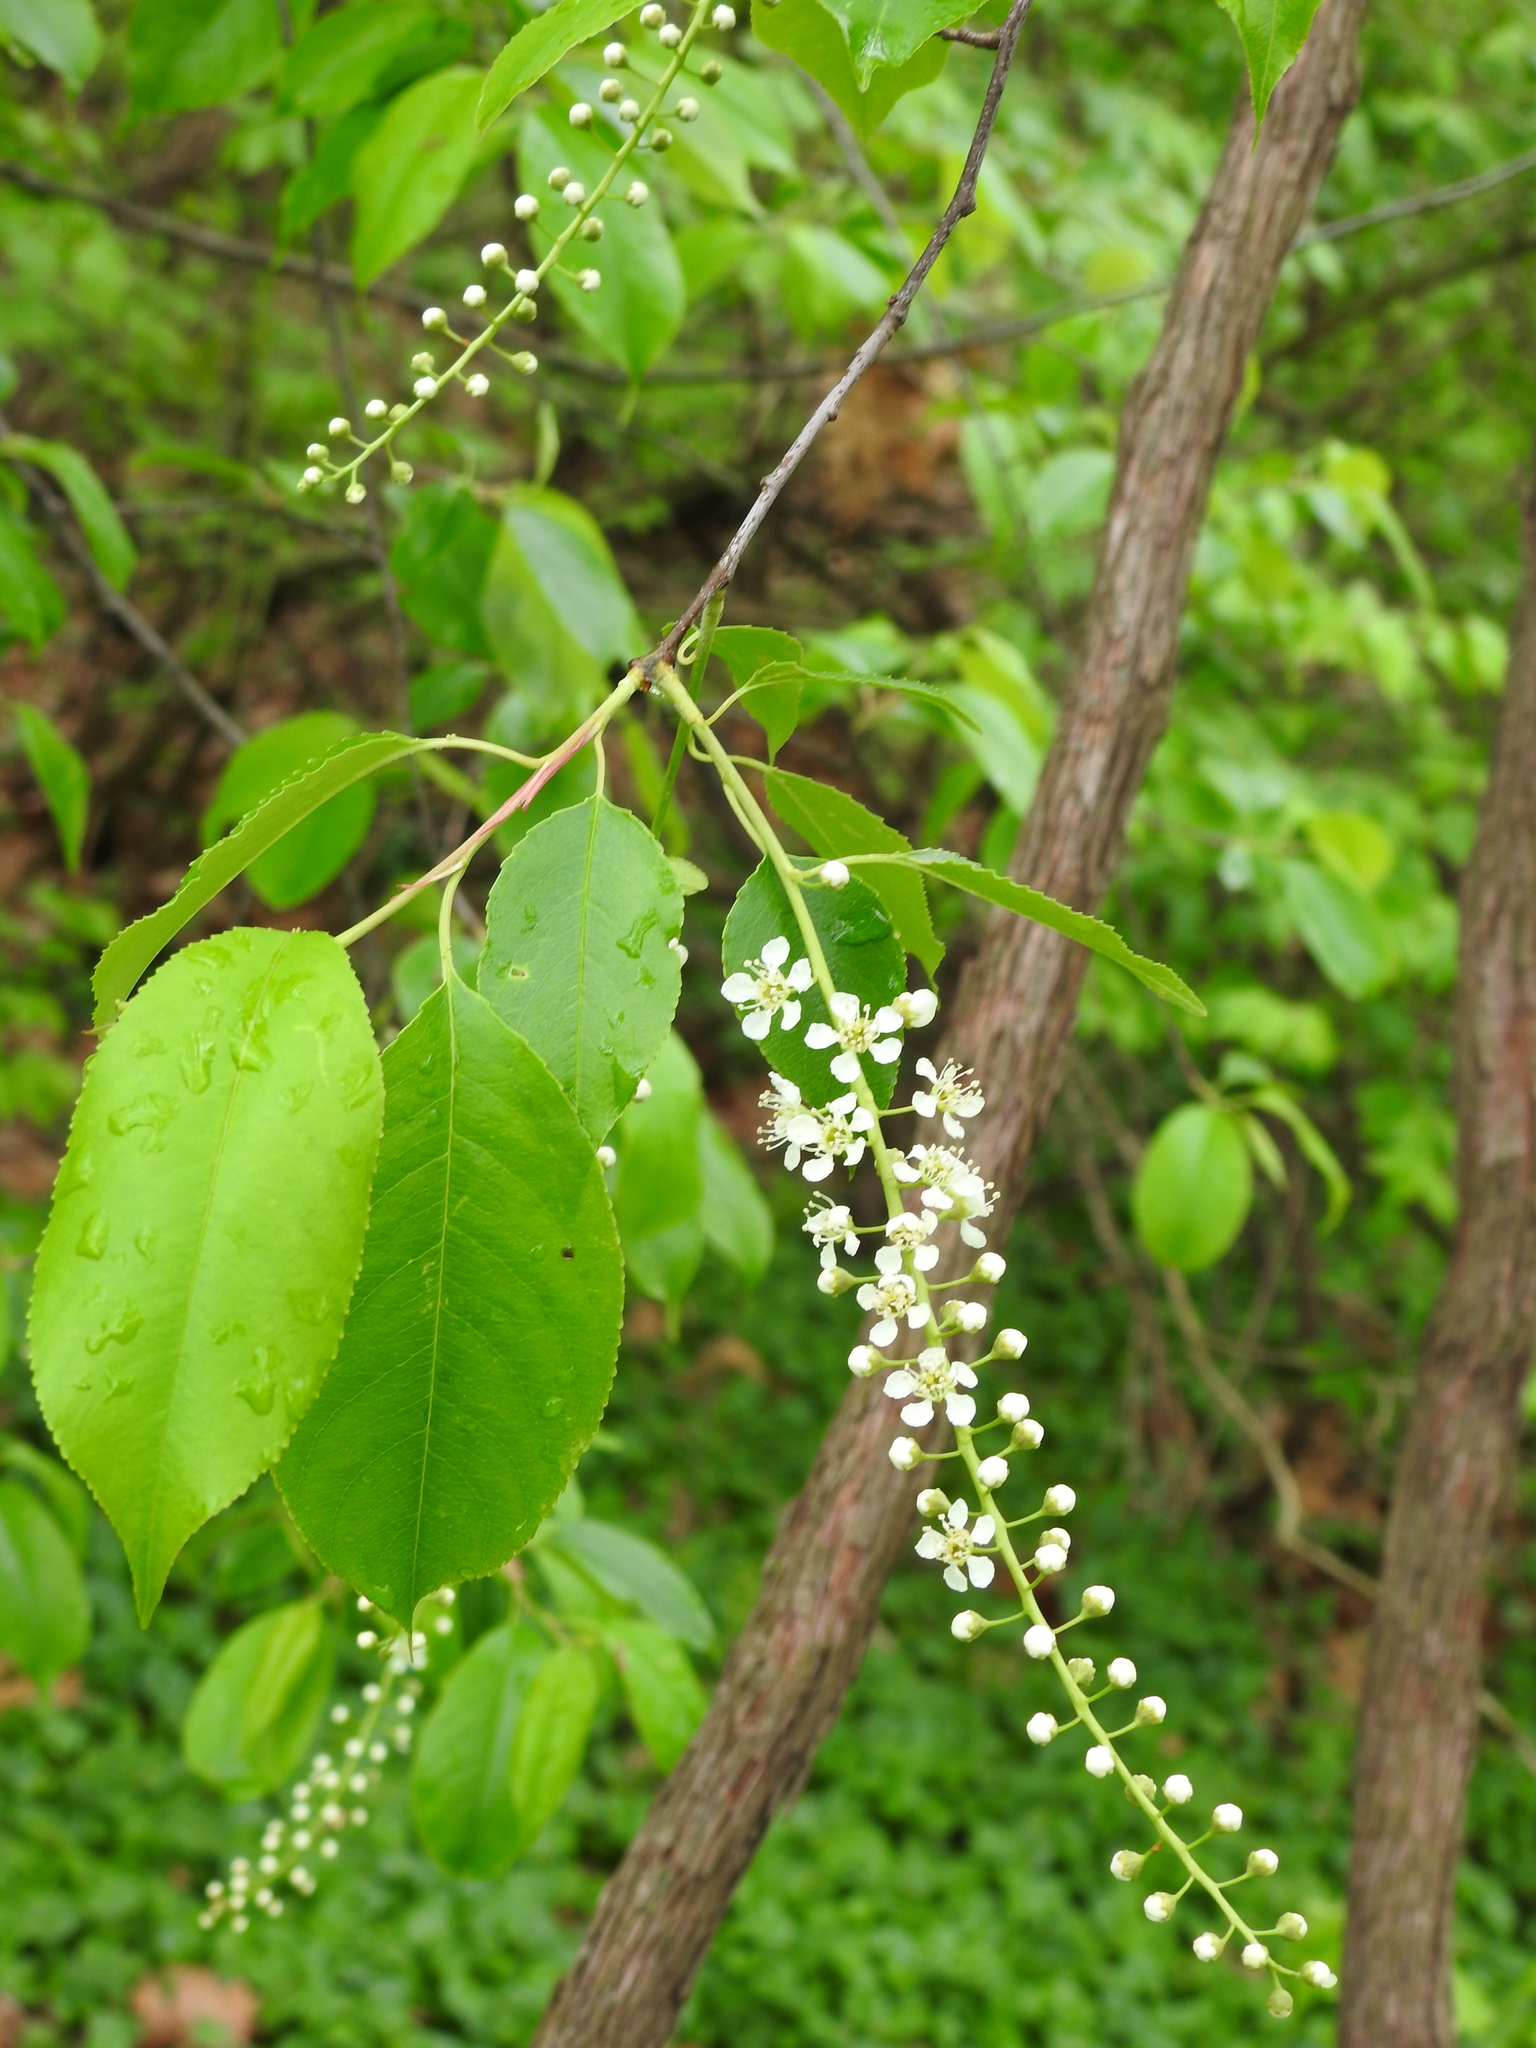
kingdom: Plantae
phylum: Tracheophyta
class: Magnoliopsida
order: Rosales
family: Rosaceae
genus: Prunus
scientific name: Prunus serotina
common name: Black cherry
